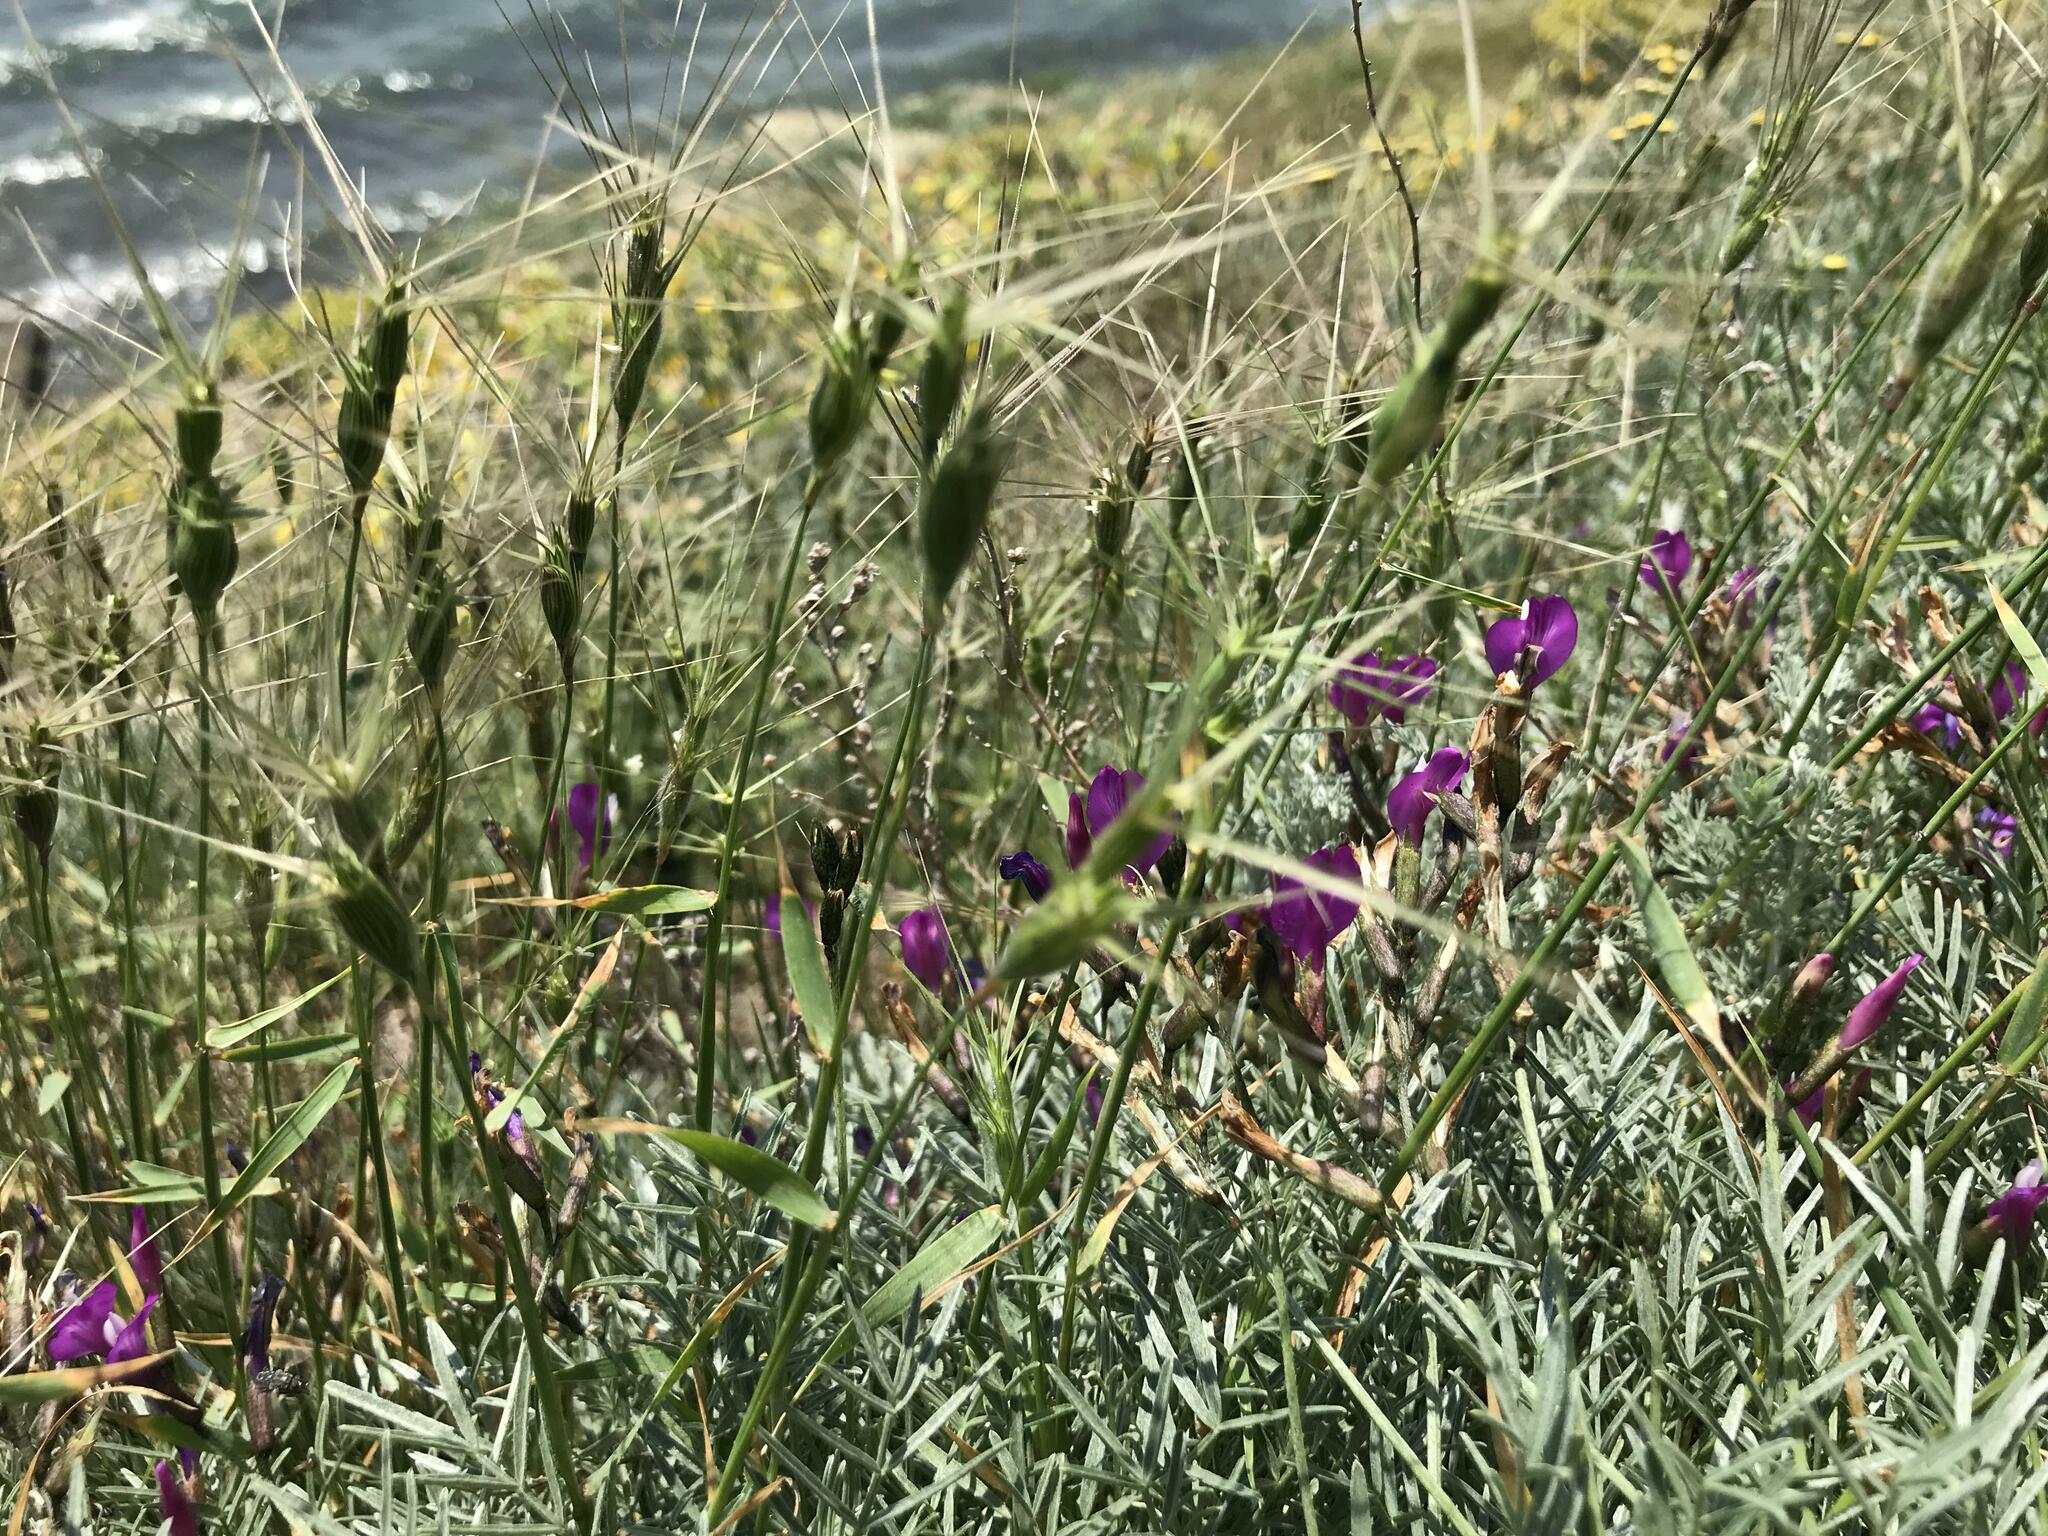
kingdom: Plantae
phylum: Tracheophyta
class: Magnoliopsida
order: Fabales
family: Fabaceae
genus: Astragalus
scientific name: Astragalus subuliformis
